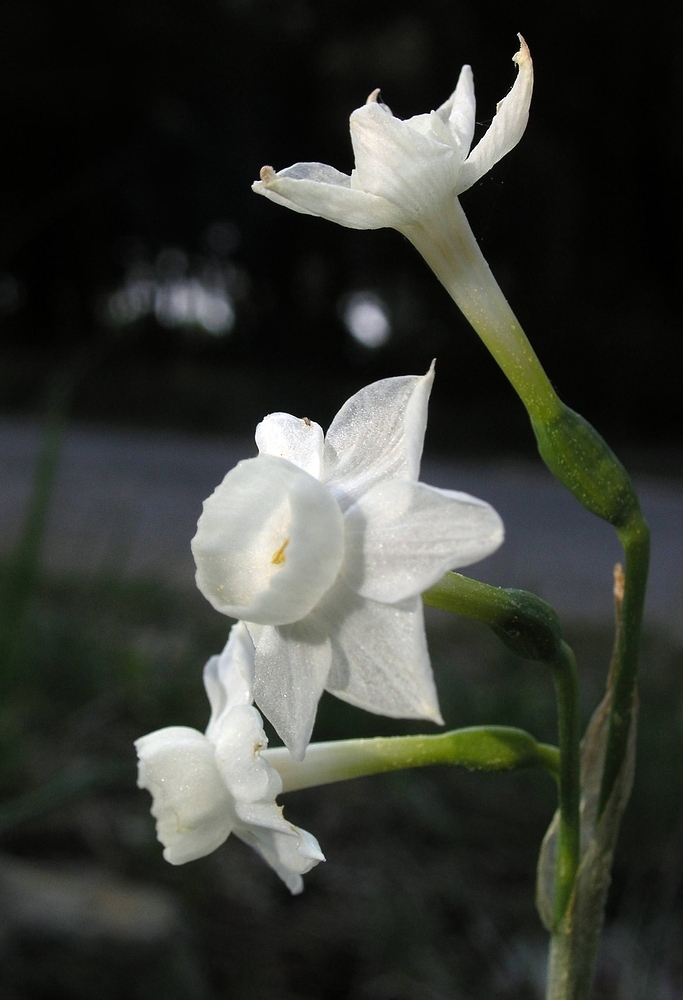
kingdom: Plantae
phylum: Tracheophyta
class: Liliopsida
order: Asparagales
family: Amaryllidaceae
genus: Narcissus
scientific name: Narcissus dubius
